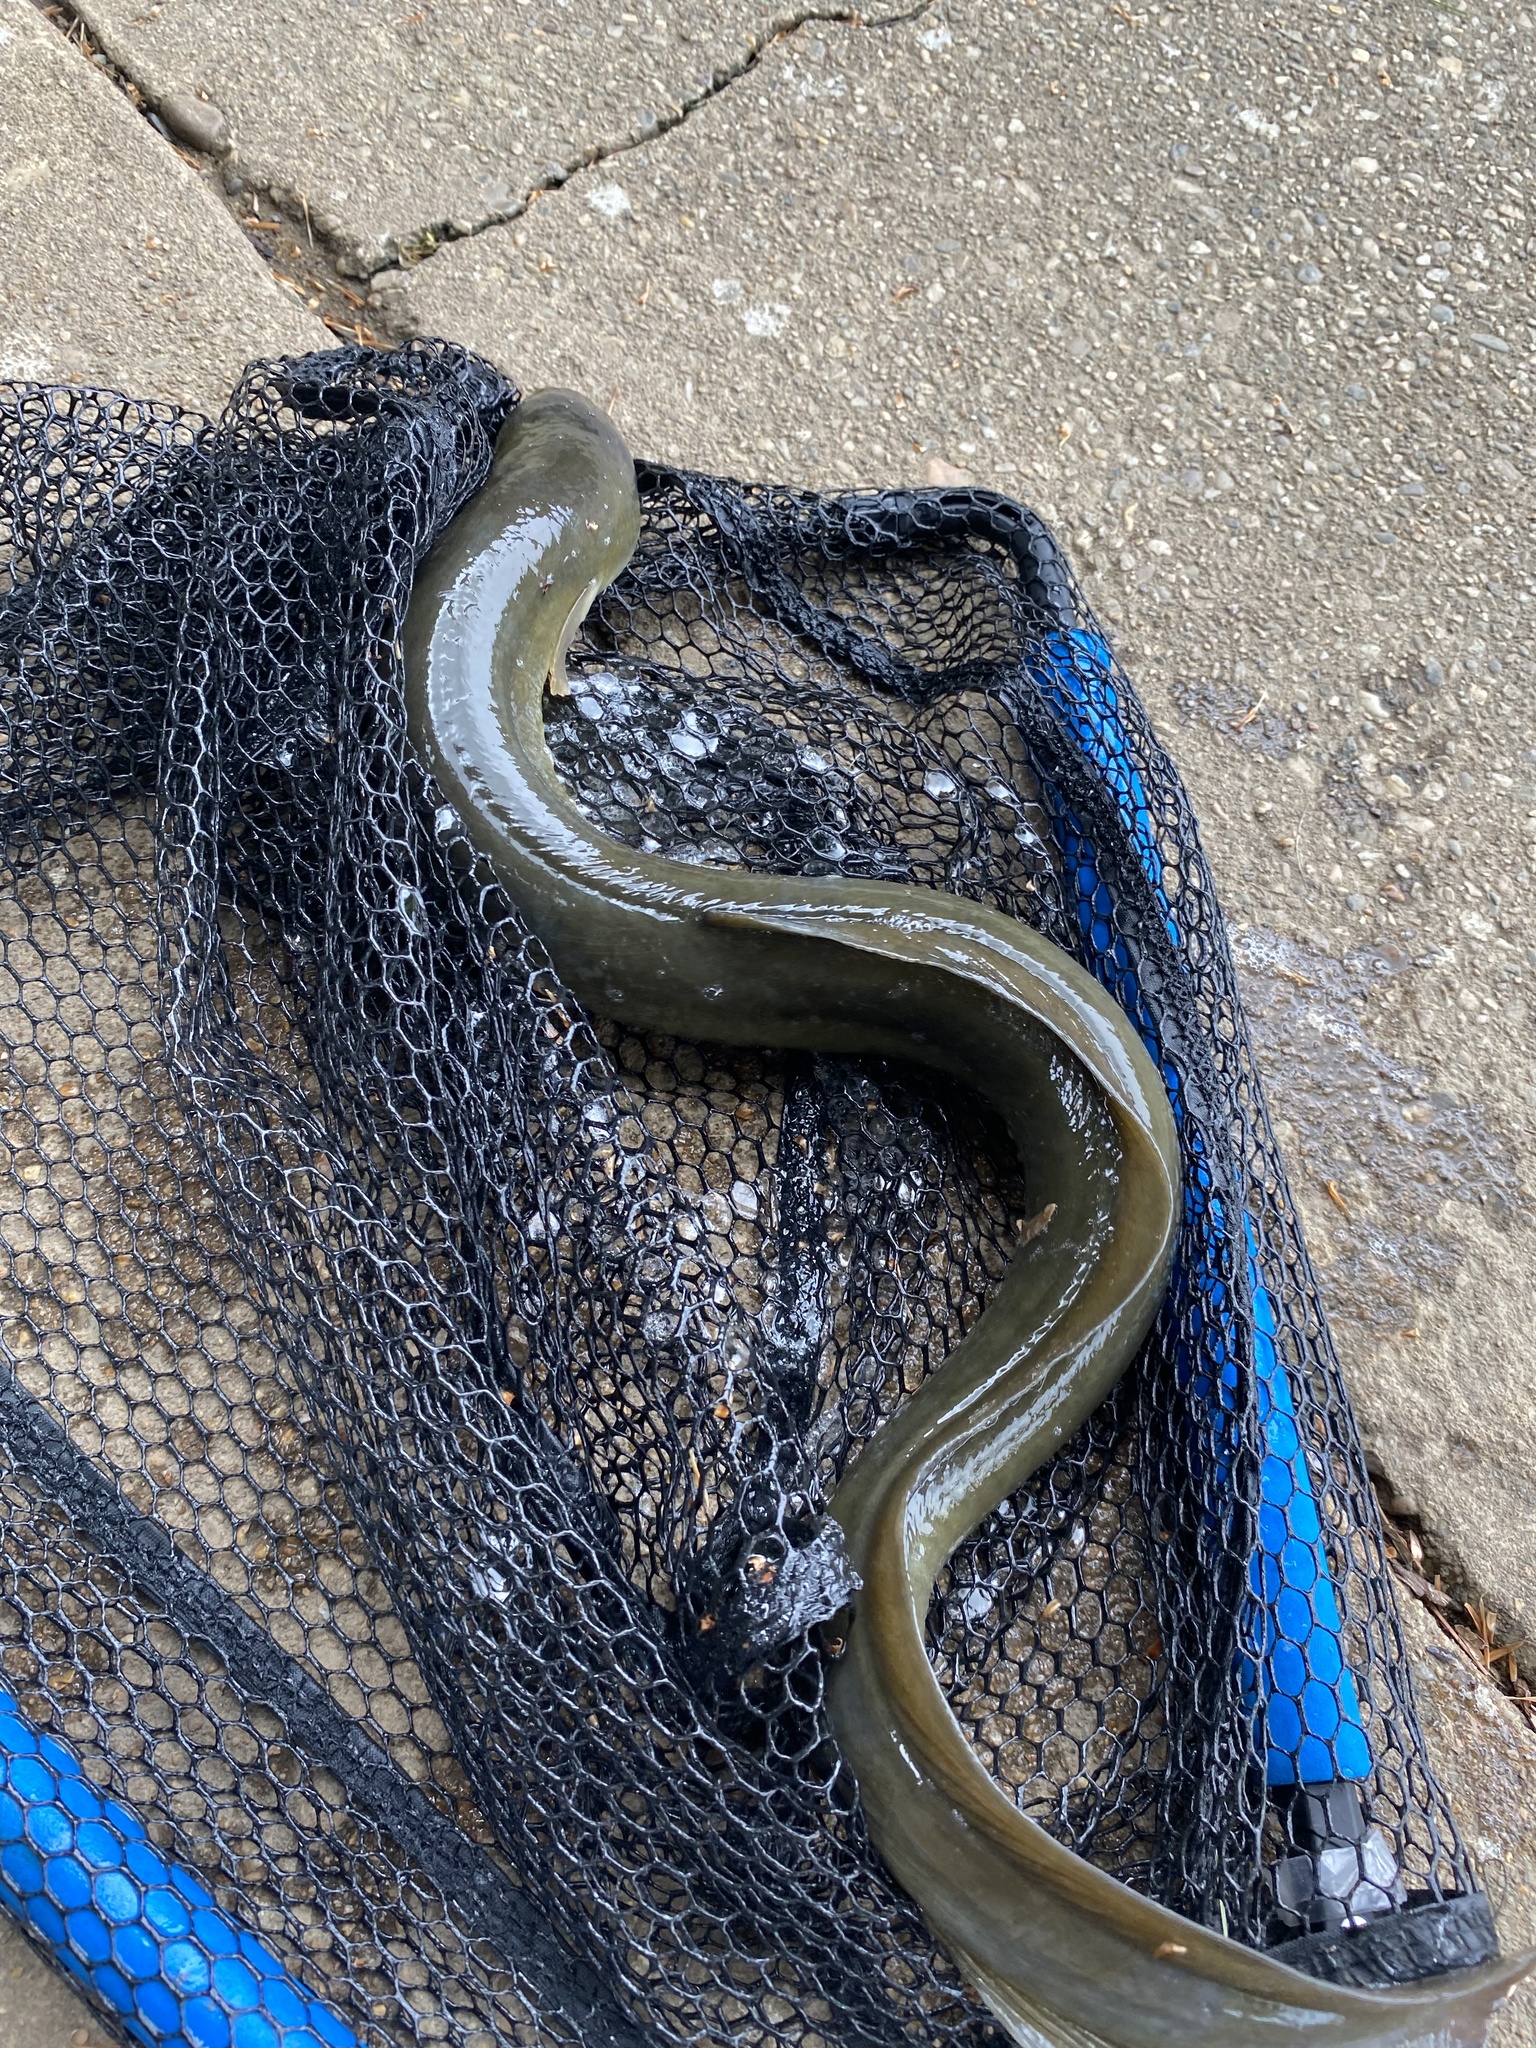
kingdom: Animalia
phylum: Chordata
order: Anguilliformes
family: Anguillidae
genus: Anguilla
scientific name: Anguilla rostrata
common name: American eel
